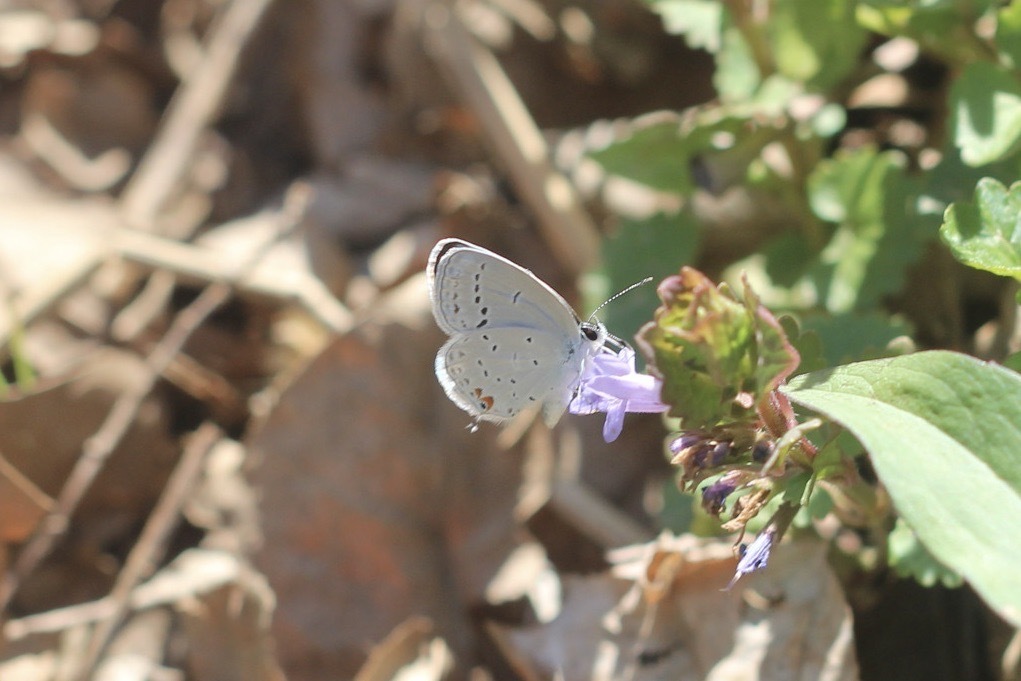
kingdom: Animalia
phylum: Arthropoda
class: Insecta
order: Lepidoptera
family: Lycaenidae
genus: Elkalyce
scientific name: Elkalyce comyntas
